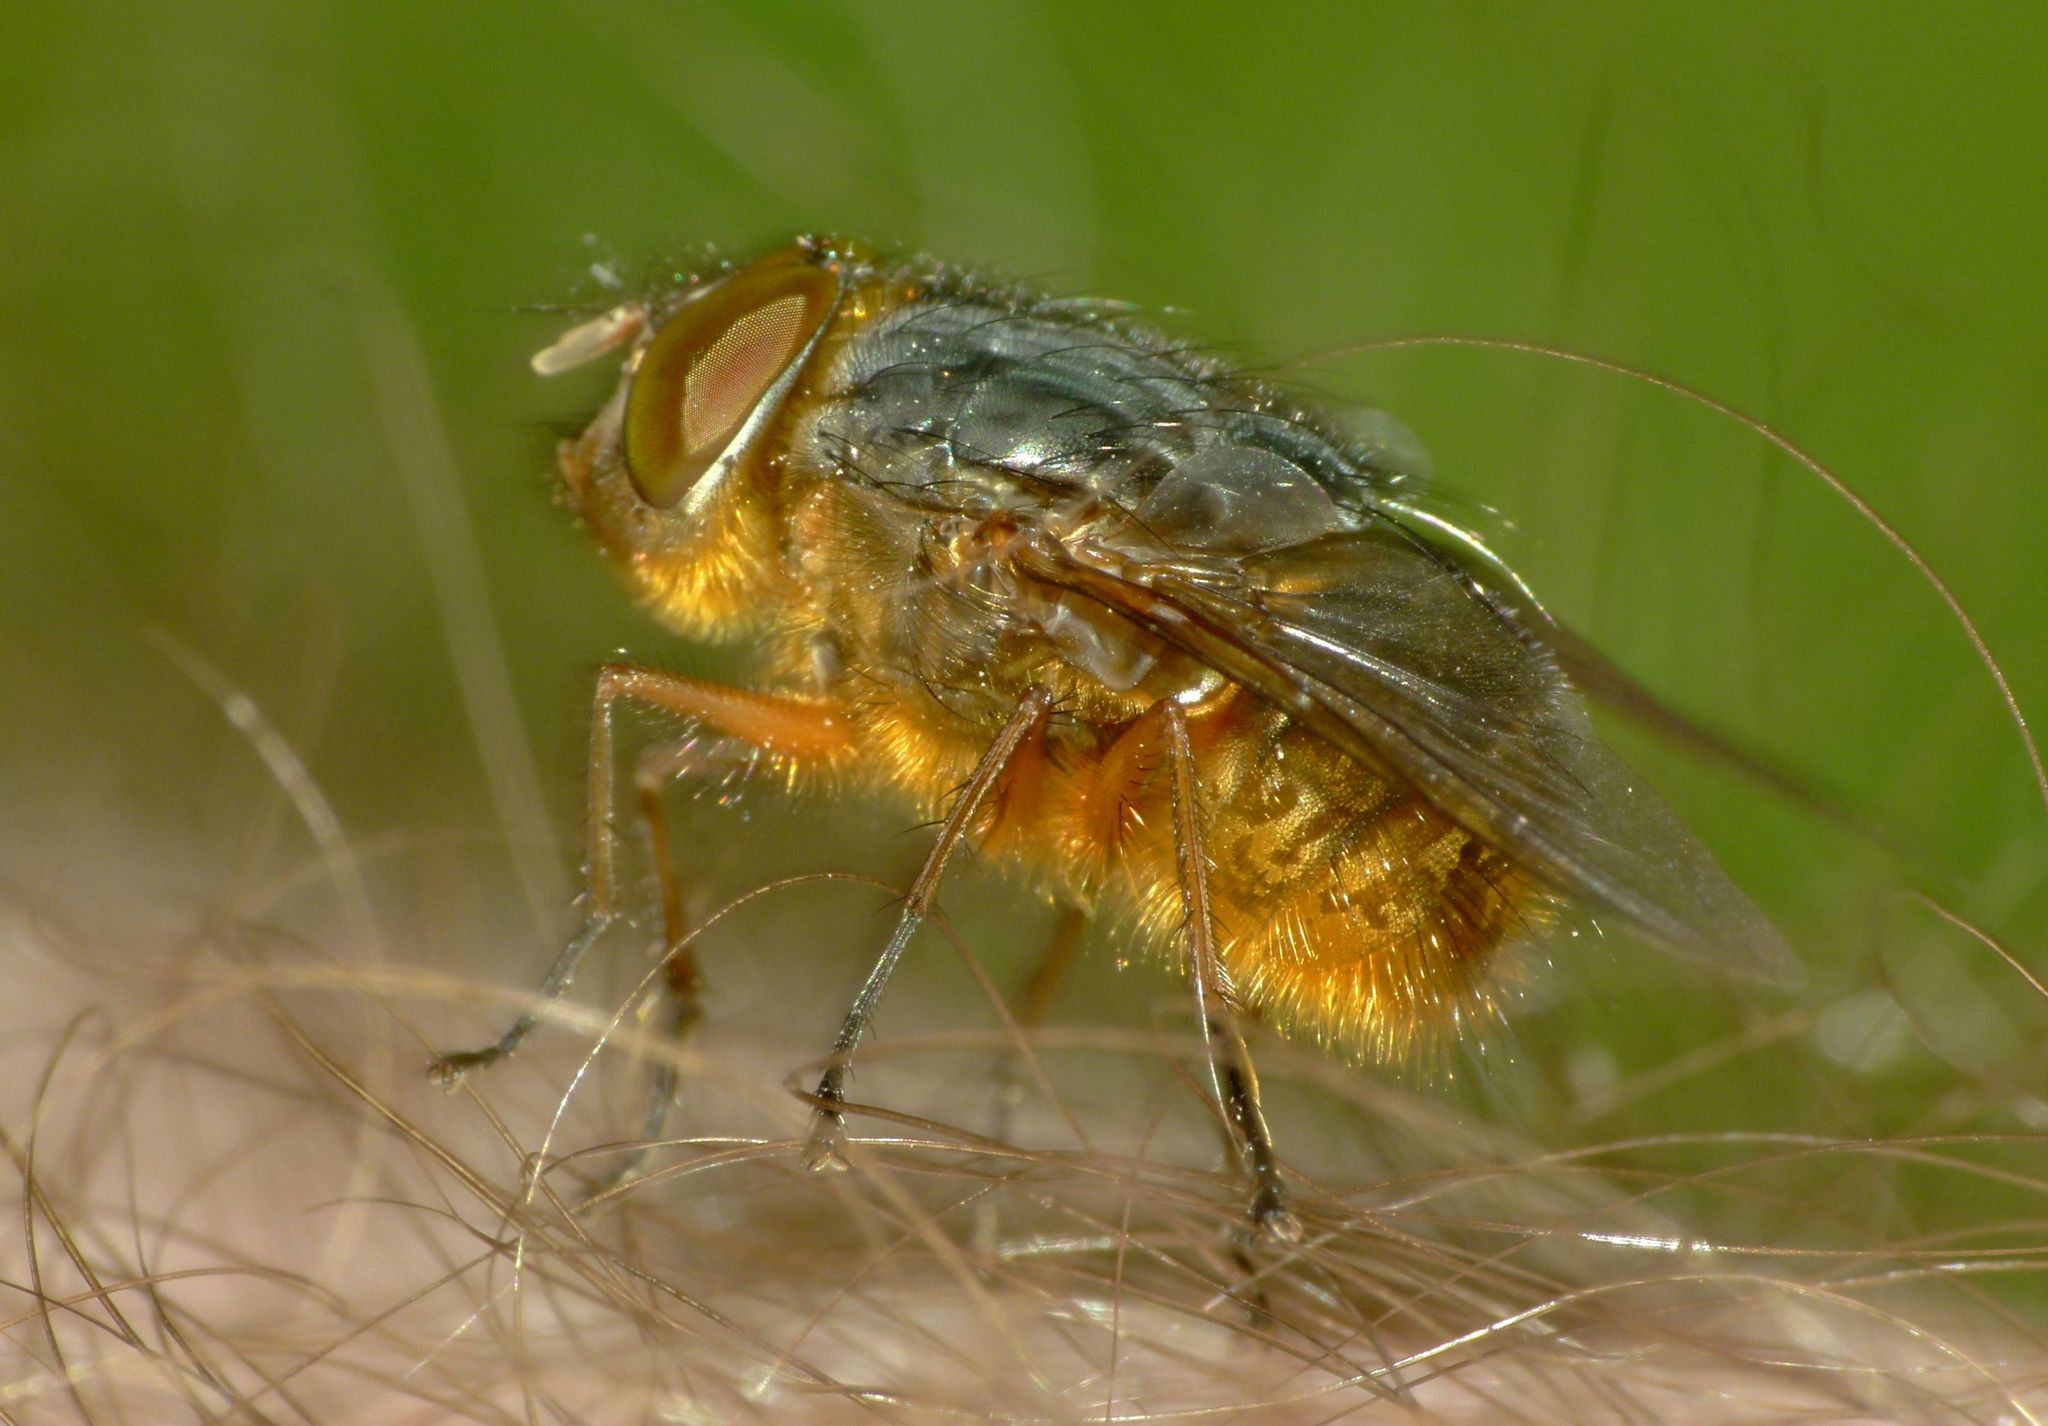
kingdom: Animalia
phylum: Arthropoda
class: Insecta
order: Diptera
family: Calliphoridae
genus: Calliphora
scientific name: Calliphora stygia
